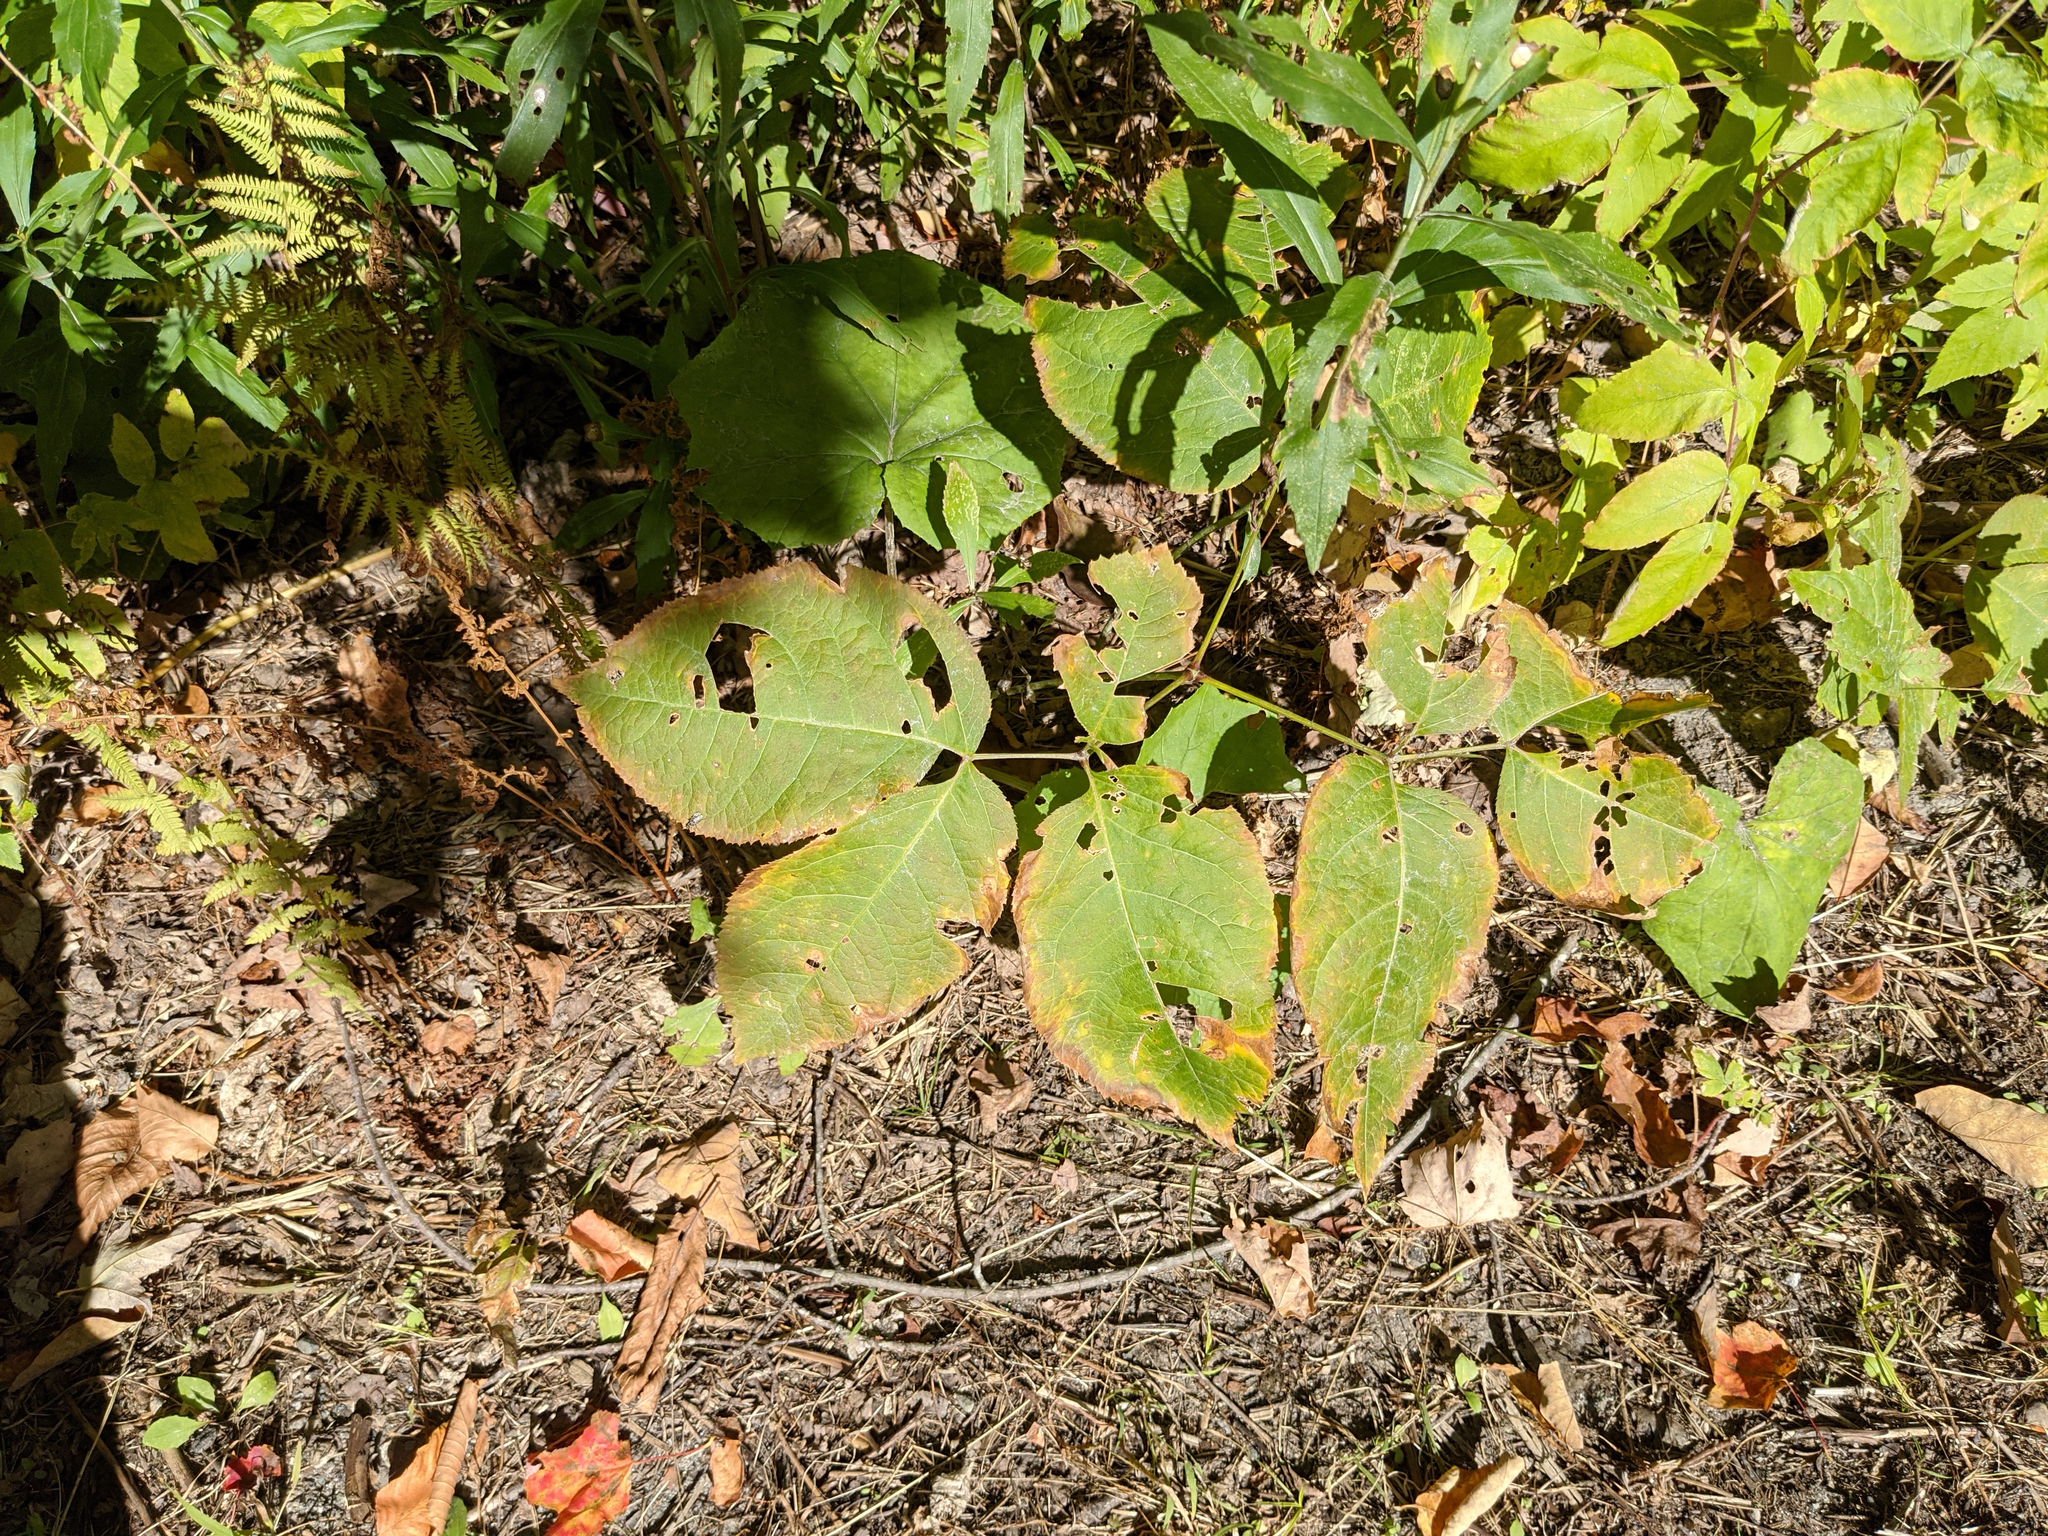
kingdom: Plantae
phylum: Tracheophyta
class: Magnoliopsida
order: Apiales
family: Araliaceae
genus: Aralia
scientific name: Aralia nudicaulis
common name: Wild sarsaparilla
